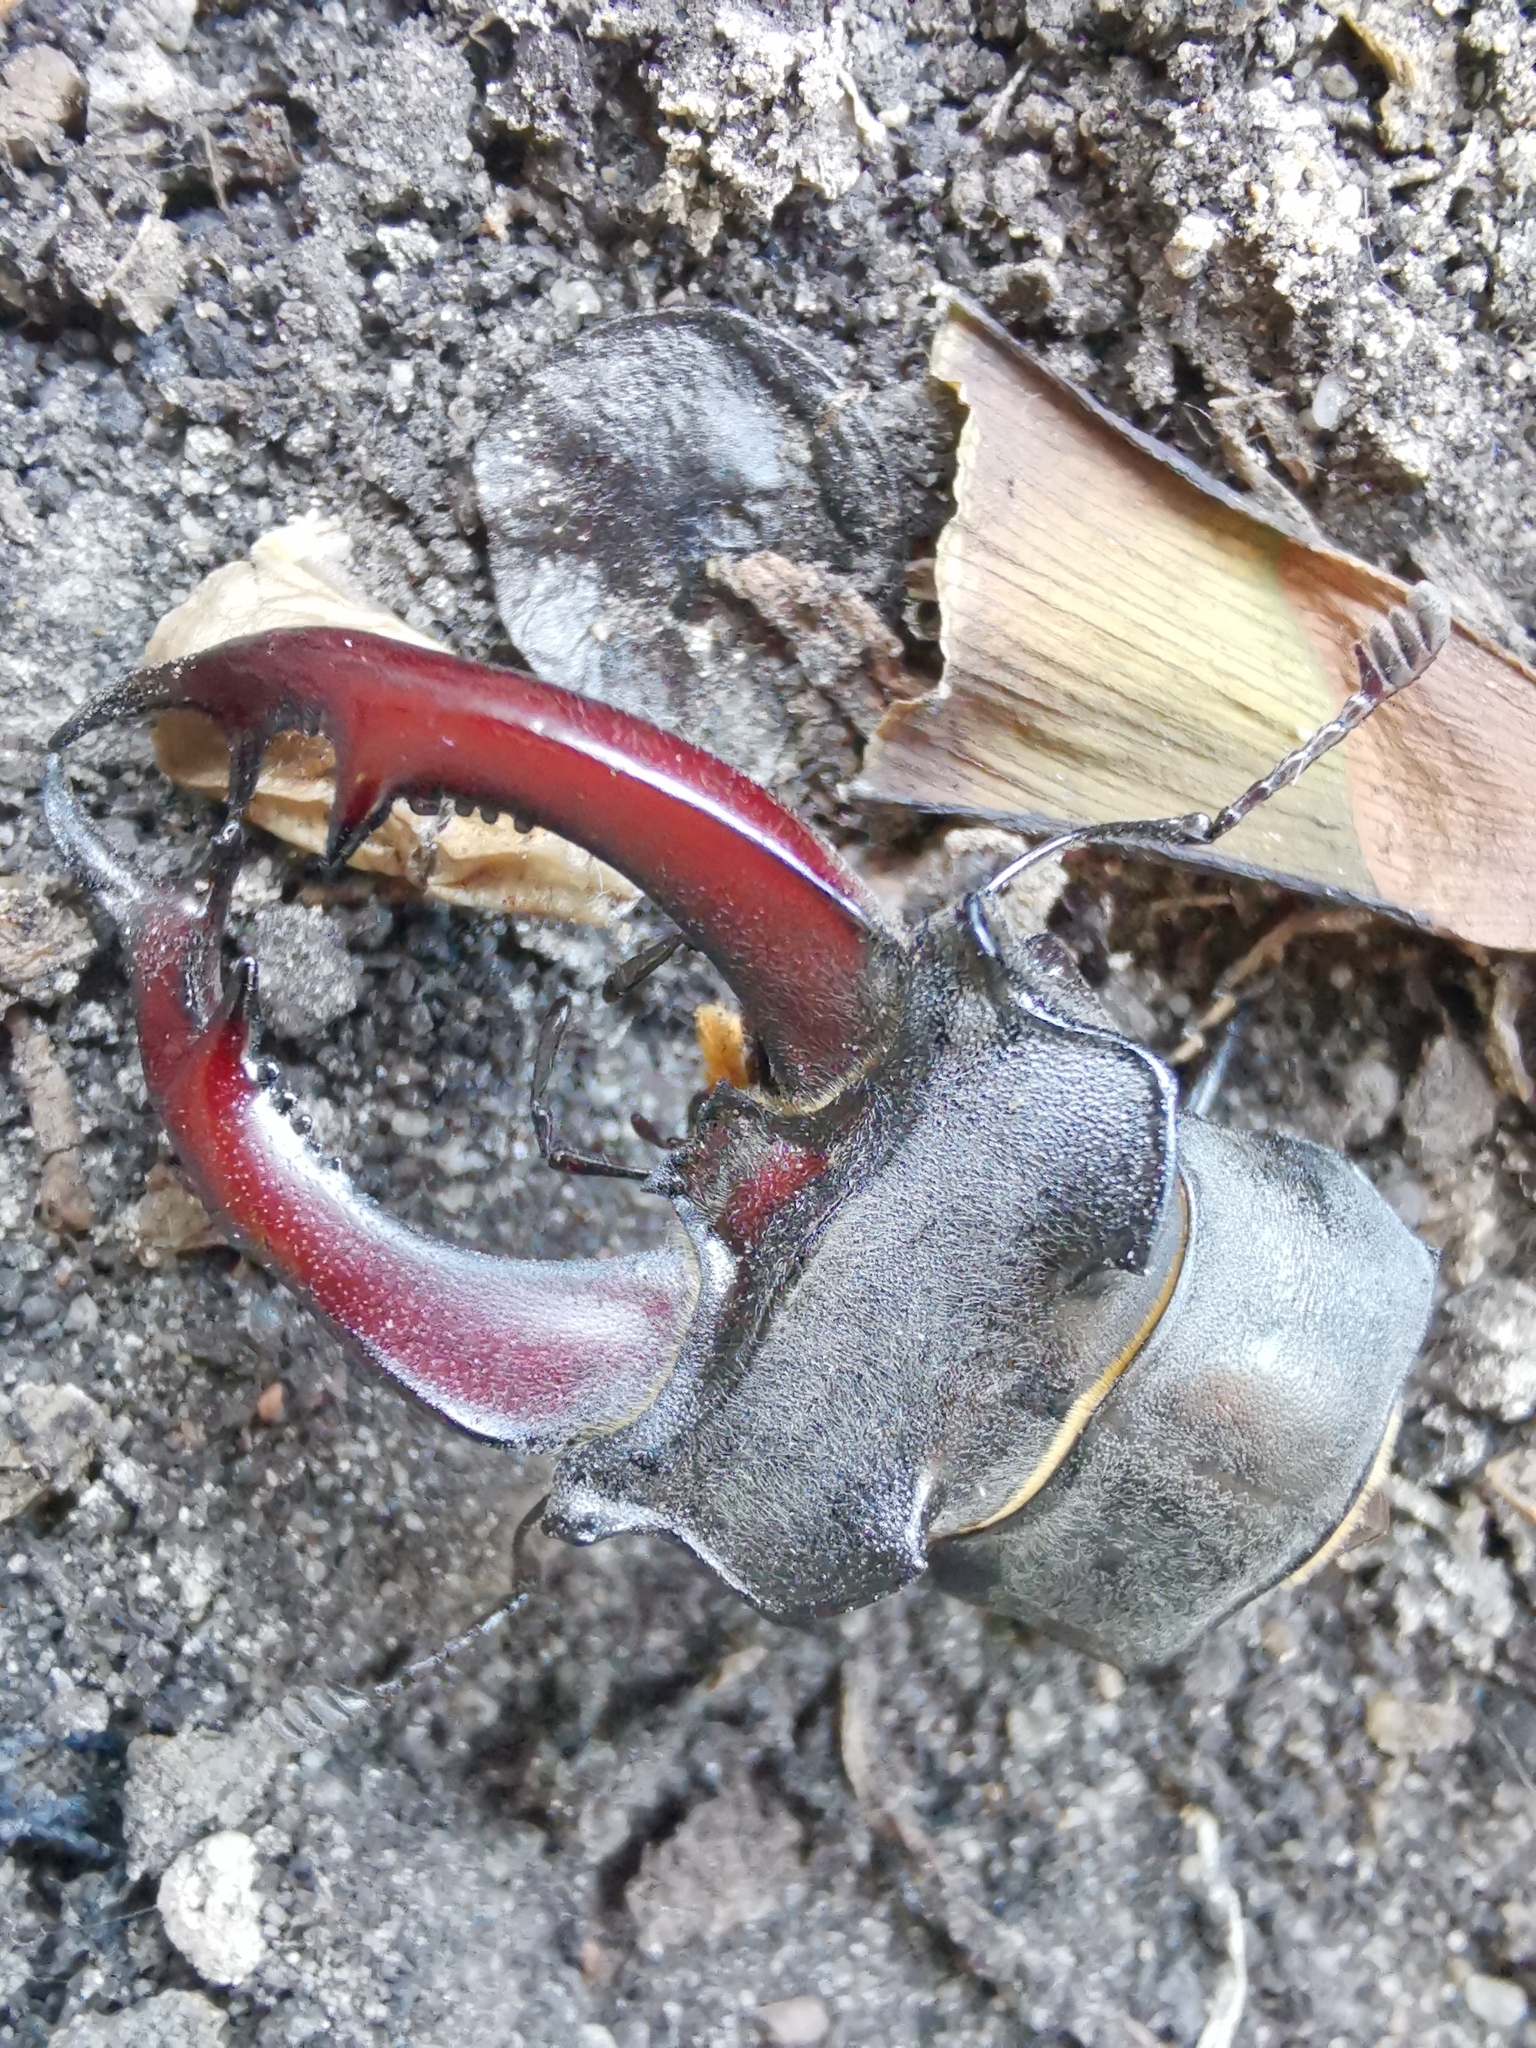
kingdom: Animalia
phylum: Arthropoda
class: Insecta
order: Coleoptera
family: Lucanidae
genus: Lucanus
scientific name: Lucanus cervus
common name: Stag beetle
